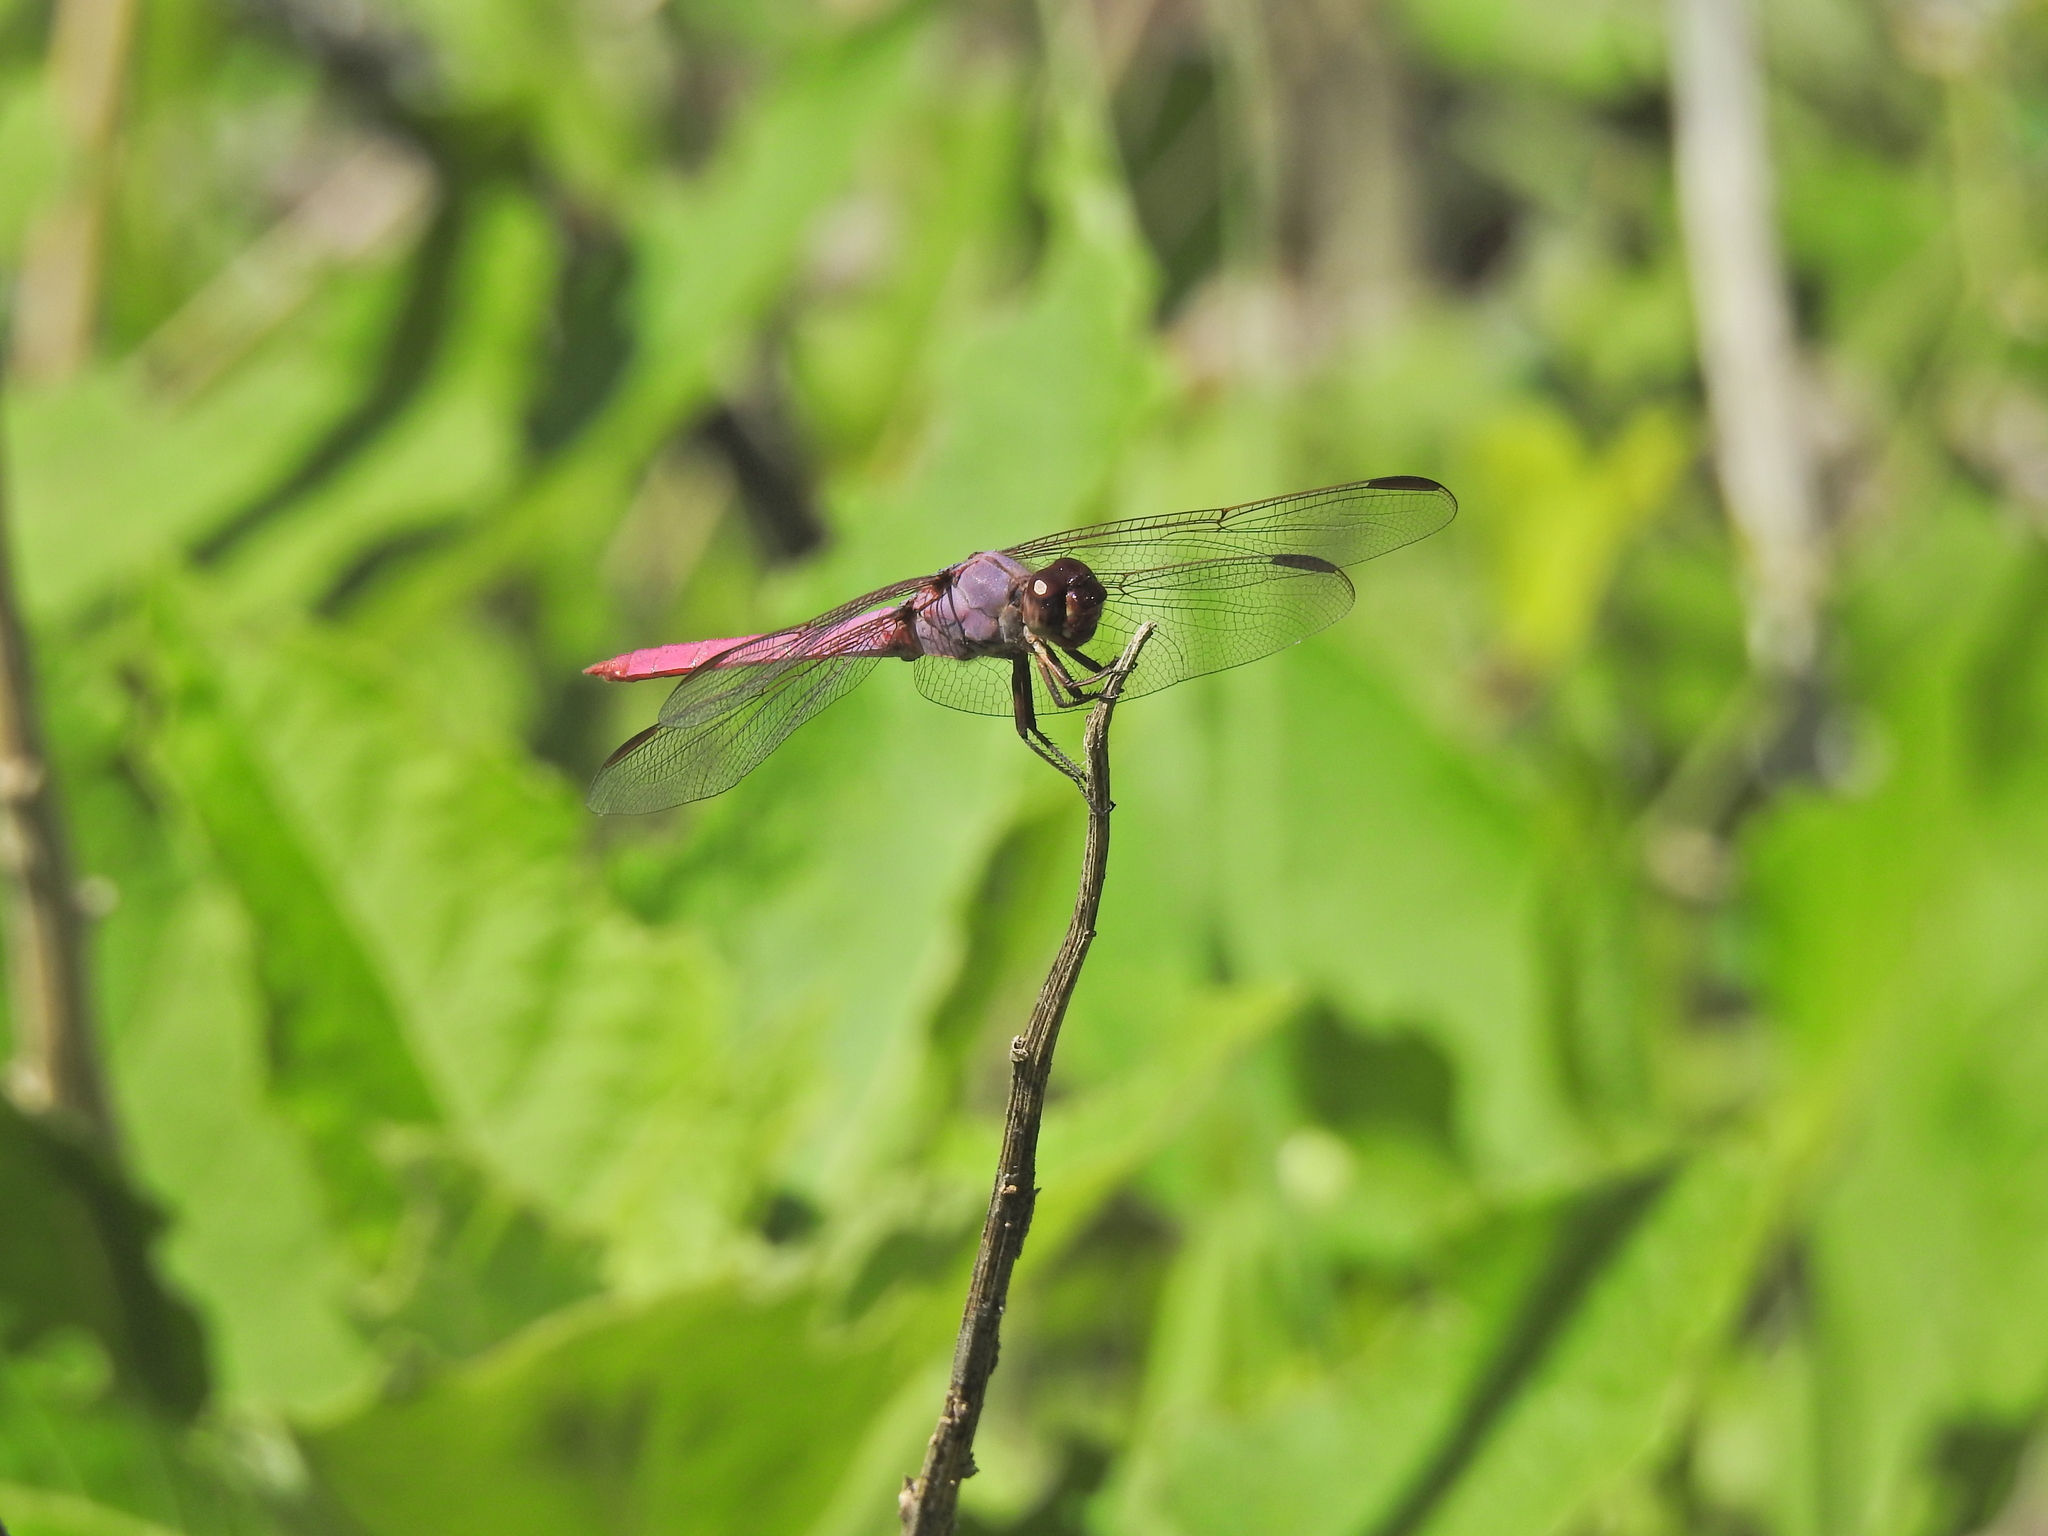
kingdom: Animalia
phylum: Arthropoda
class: Insecta
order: Odonata
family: Libellulidae
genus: Orthemis
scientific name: Orthemis ferruginea
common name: Roseate skimmer
